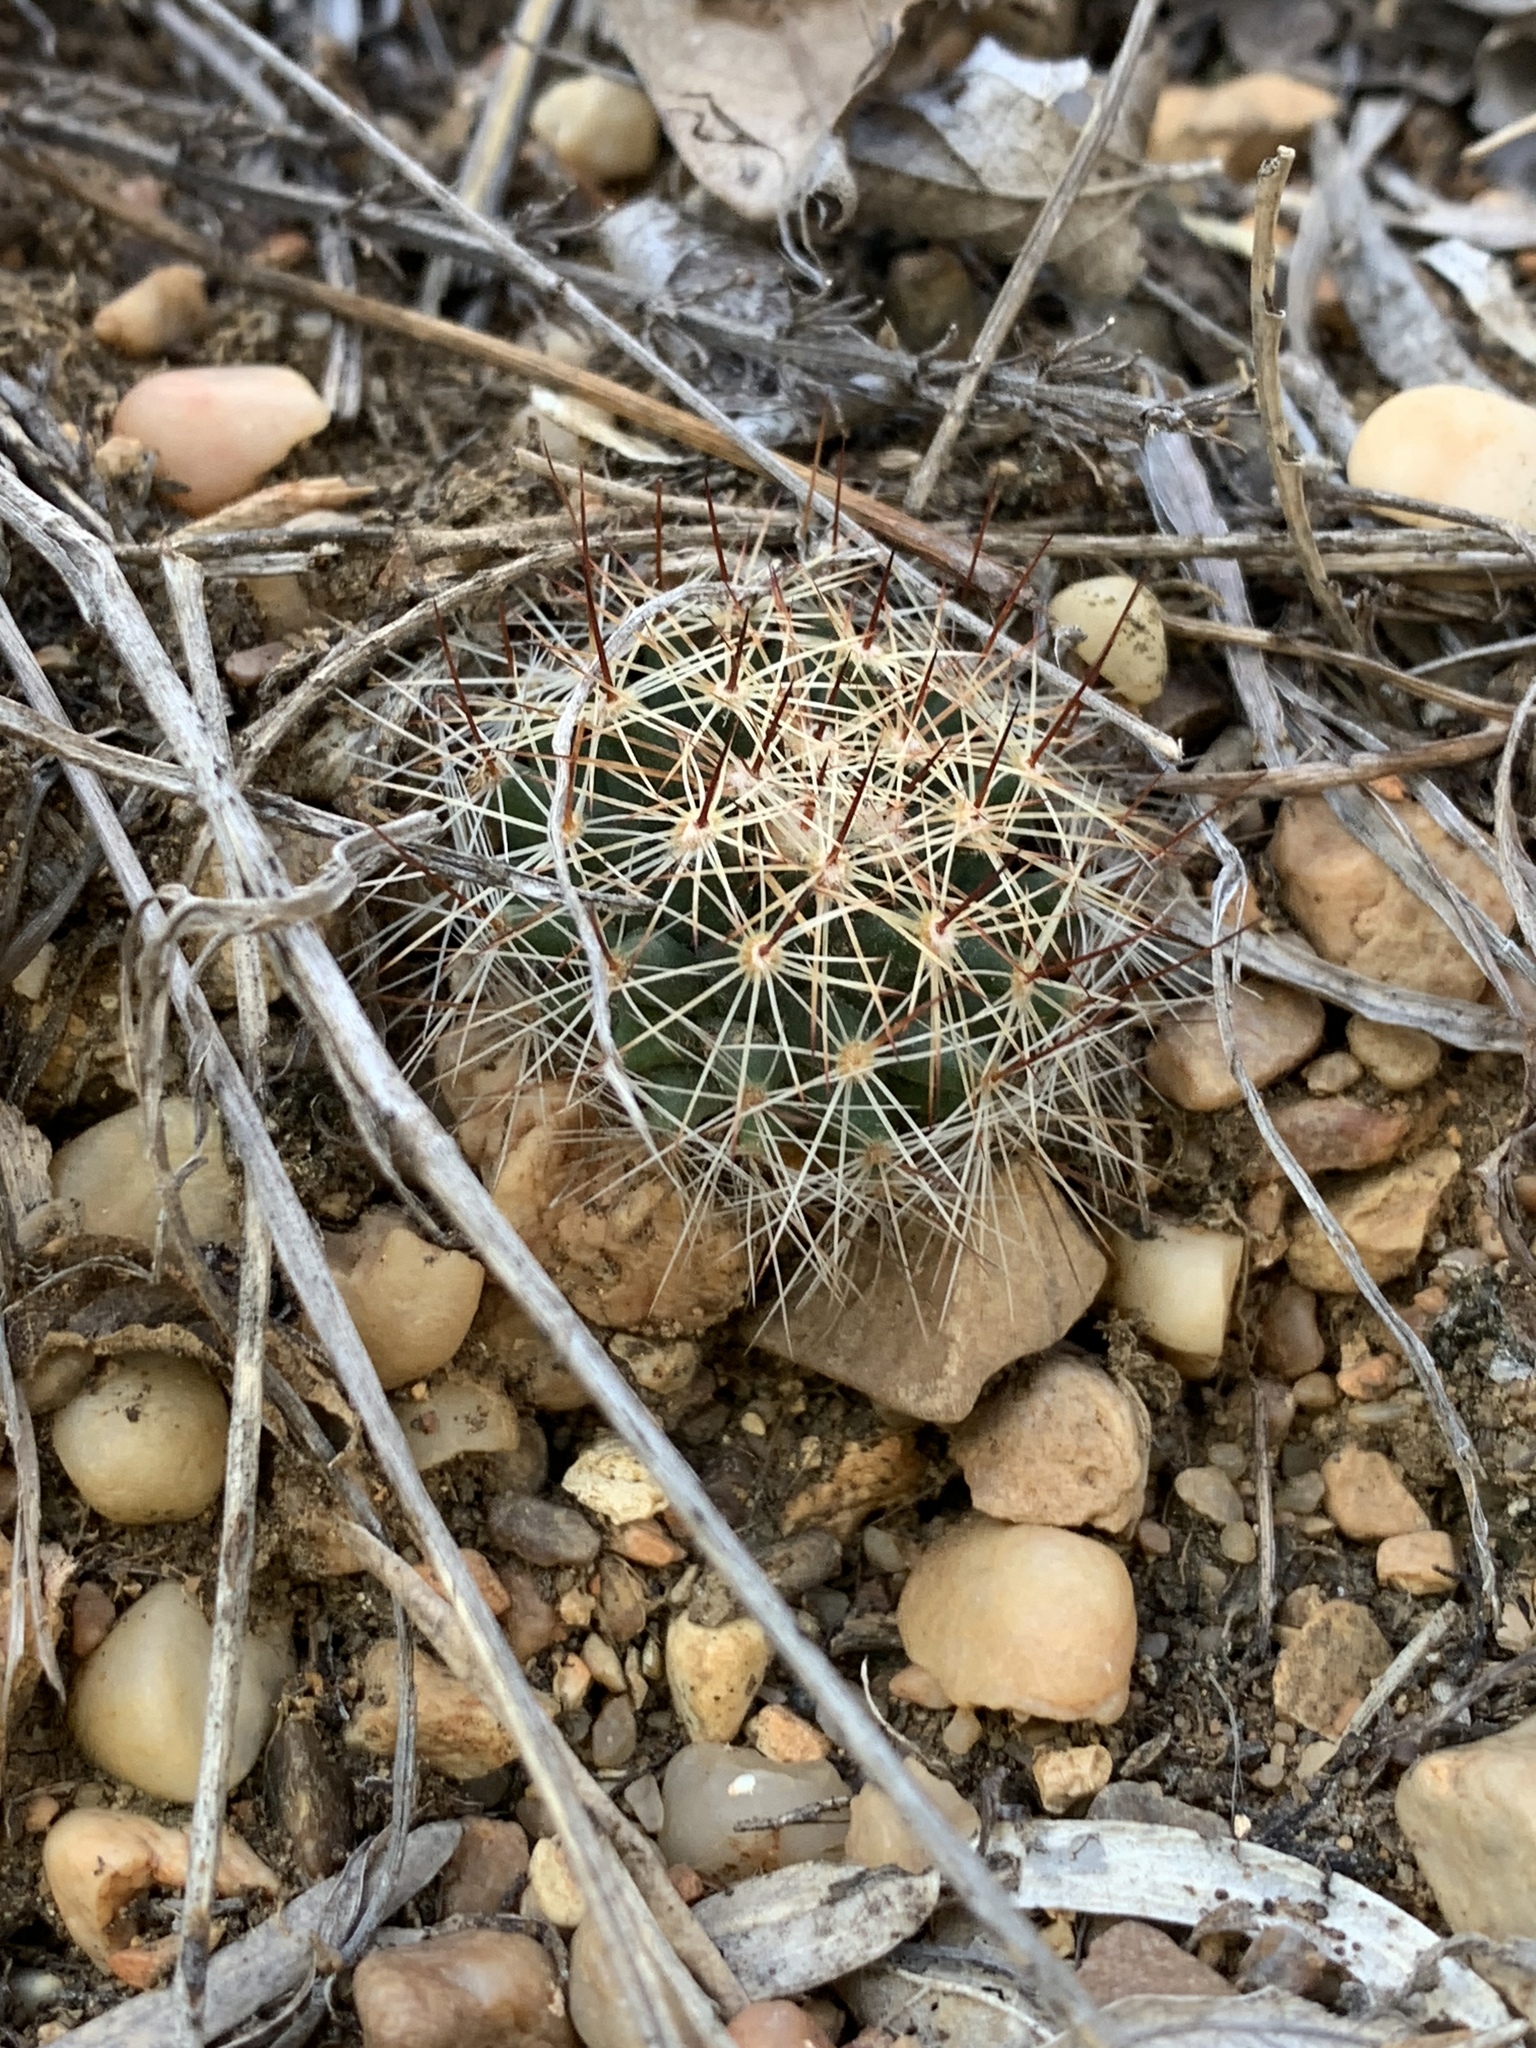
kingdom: Plantae
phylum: Tracheophyta
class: Magnoliopsida
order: Caryophyllales
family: Cactaceae
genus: Mammillaria
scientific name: Mammillaria heyderi
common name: Little nipple cactus
